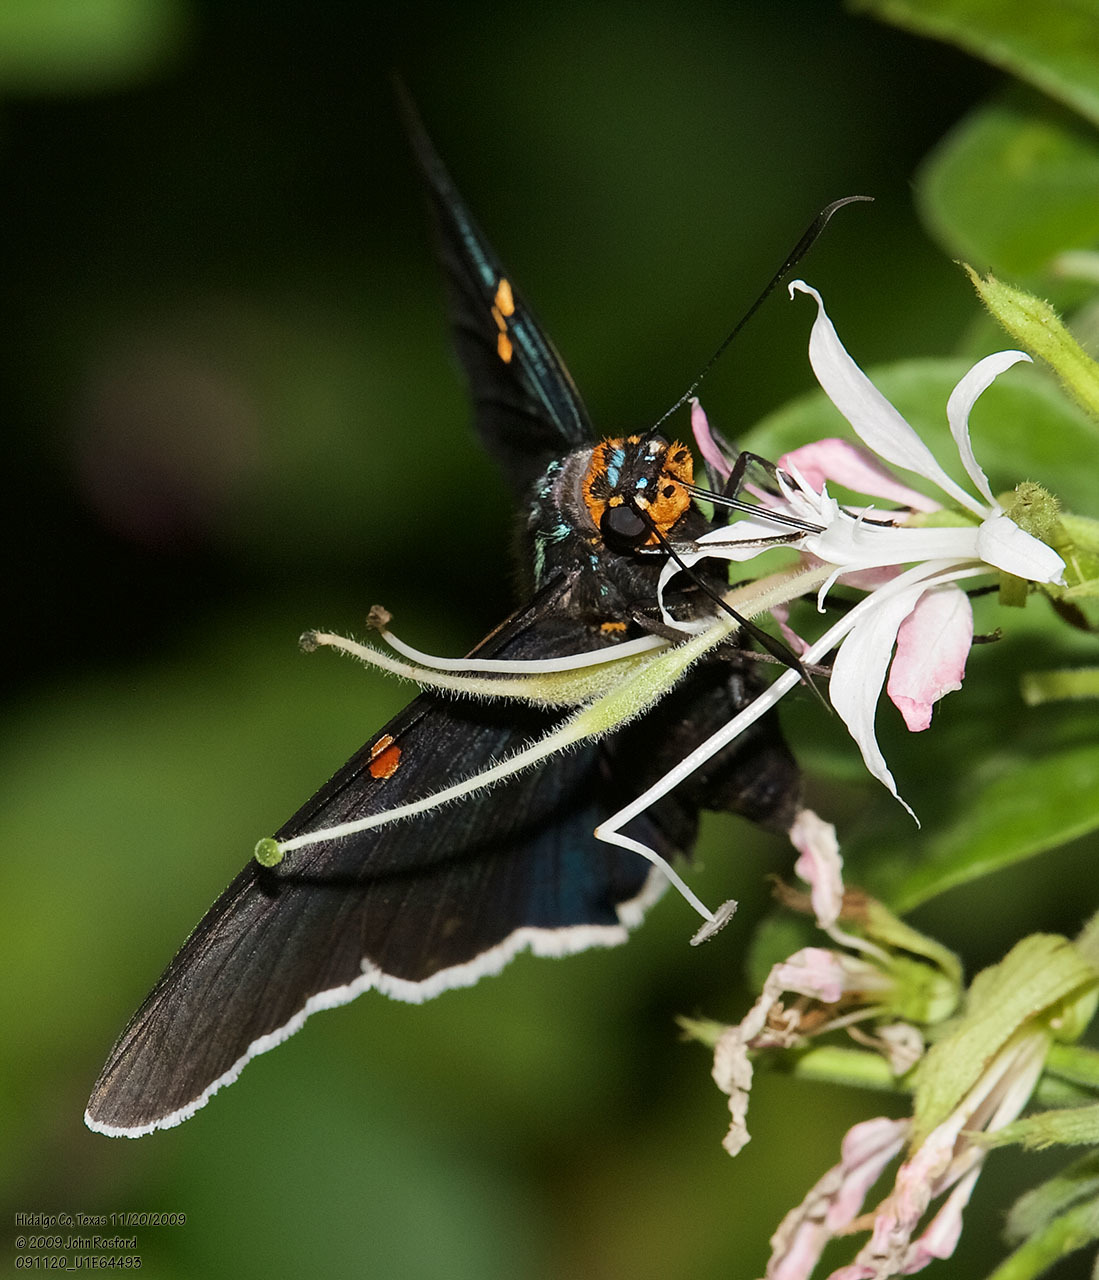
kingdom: Animalia
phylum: Arthropoda
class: Insecta
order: Lepidoptera
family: Hesperiidae
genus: Phocides
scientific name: Phocides lilea
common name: Guava skipper
